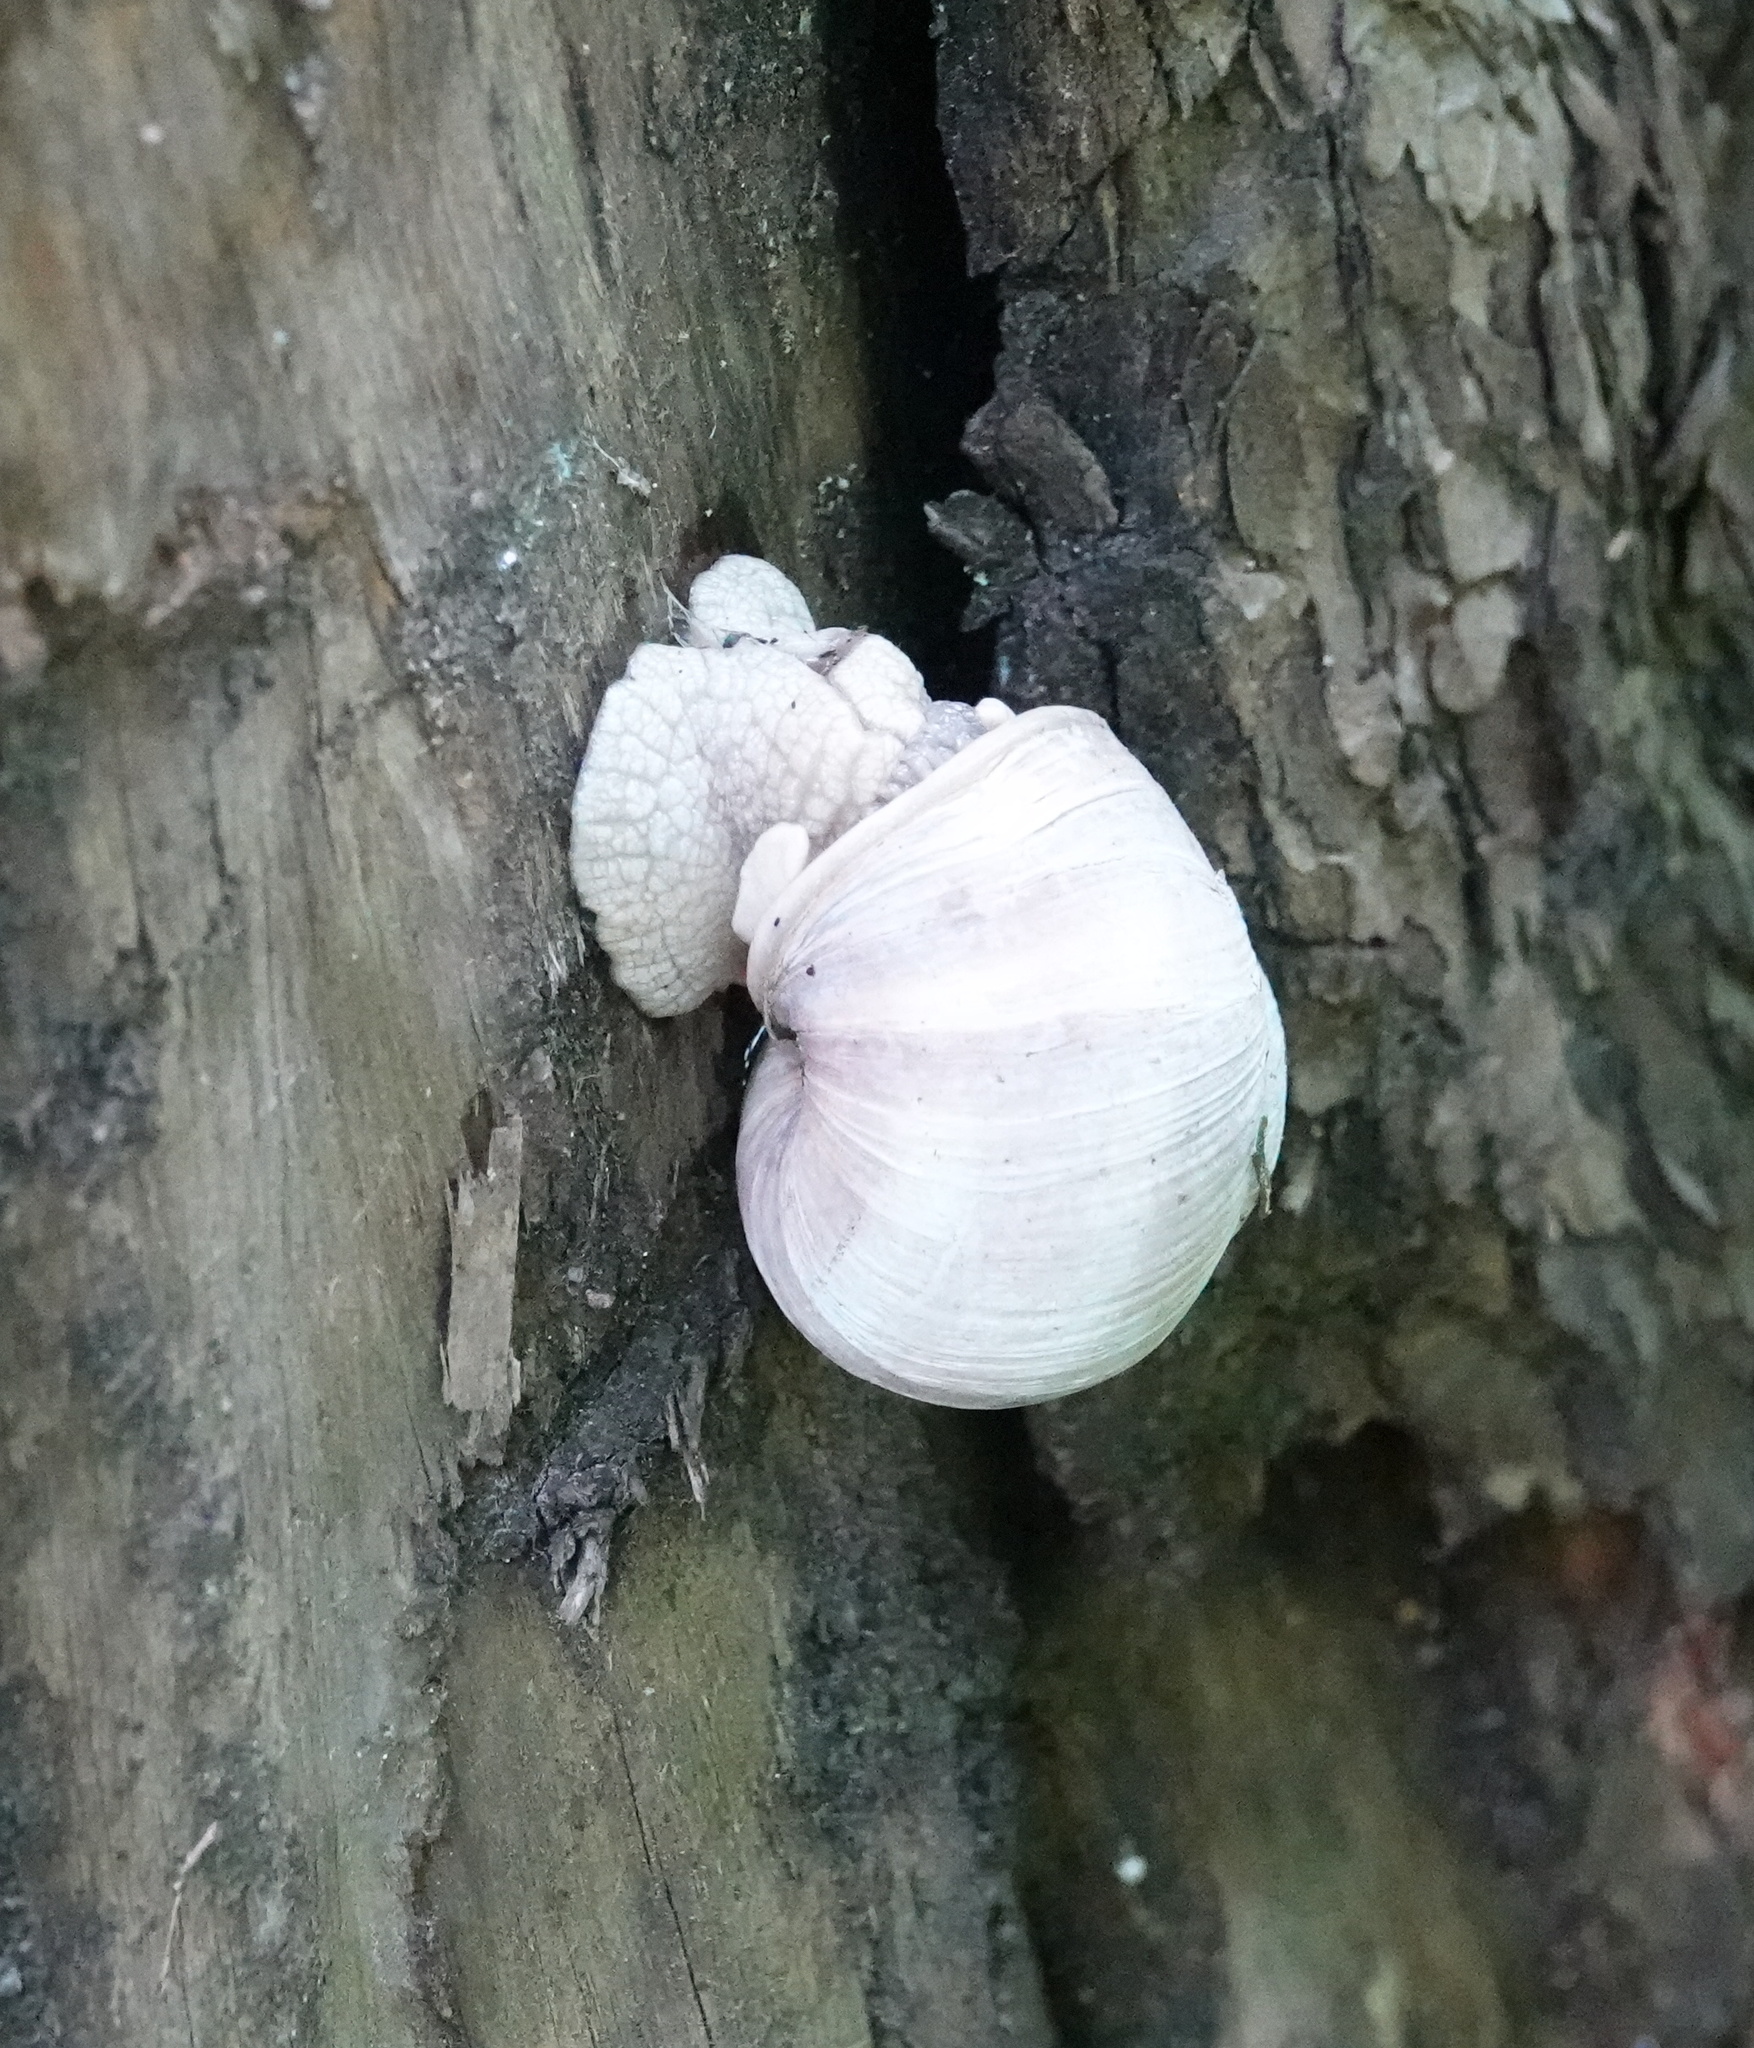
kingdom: Animalia
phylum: Mollusca
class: Gastropoda
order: Stylommatophora
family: Helicidae
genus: Helix
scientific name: Helix pomatia
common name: Roman snail
